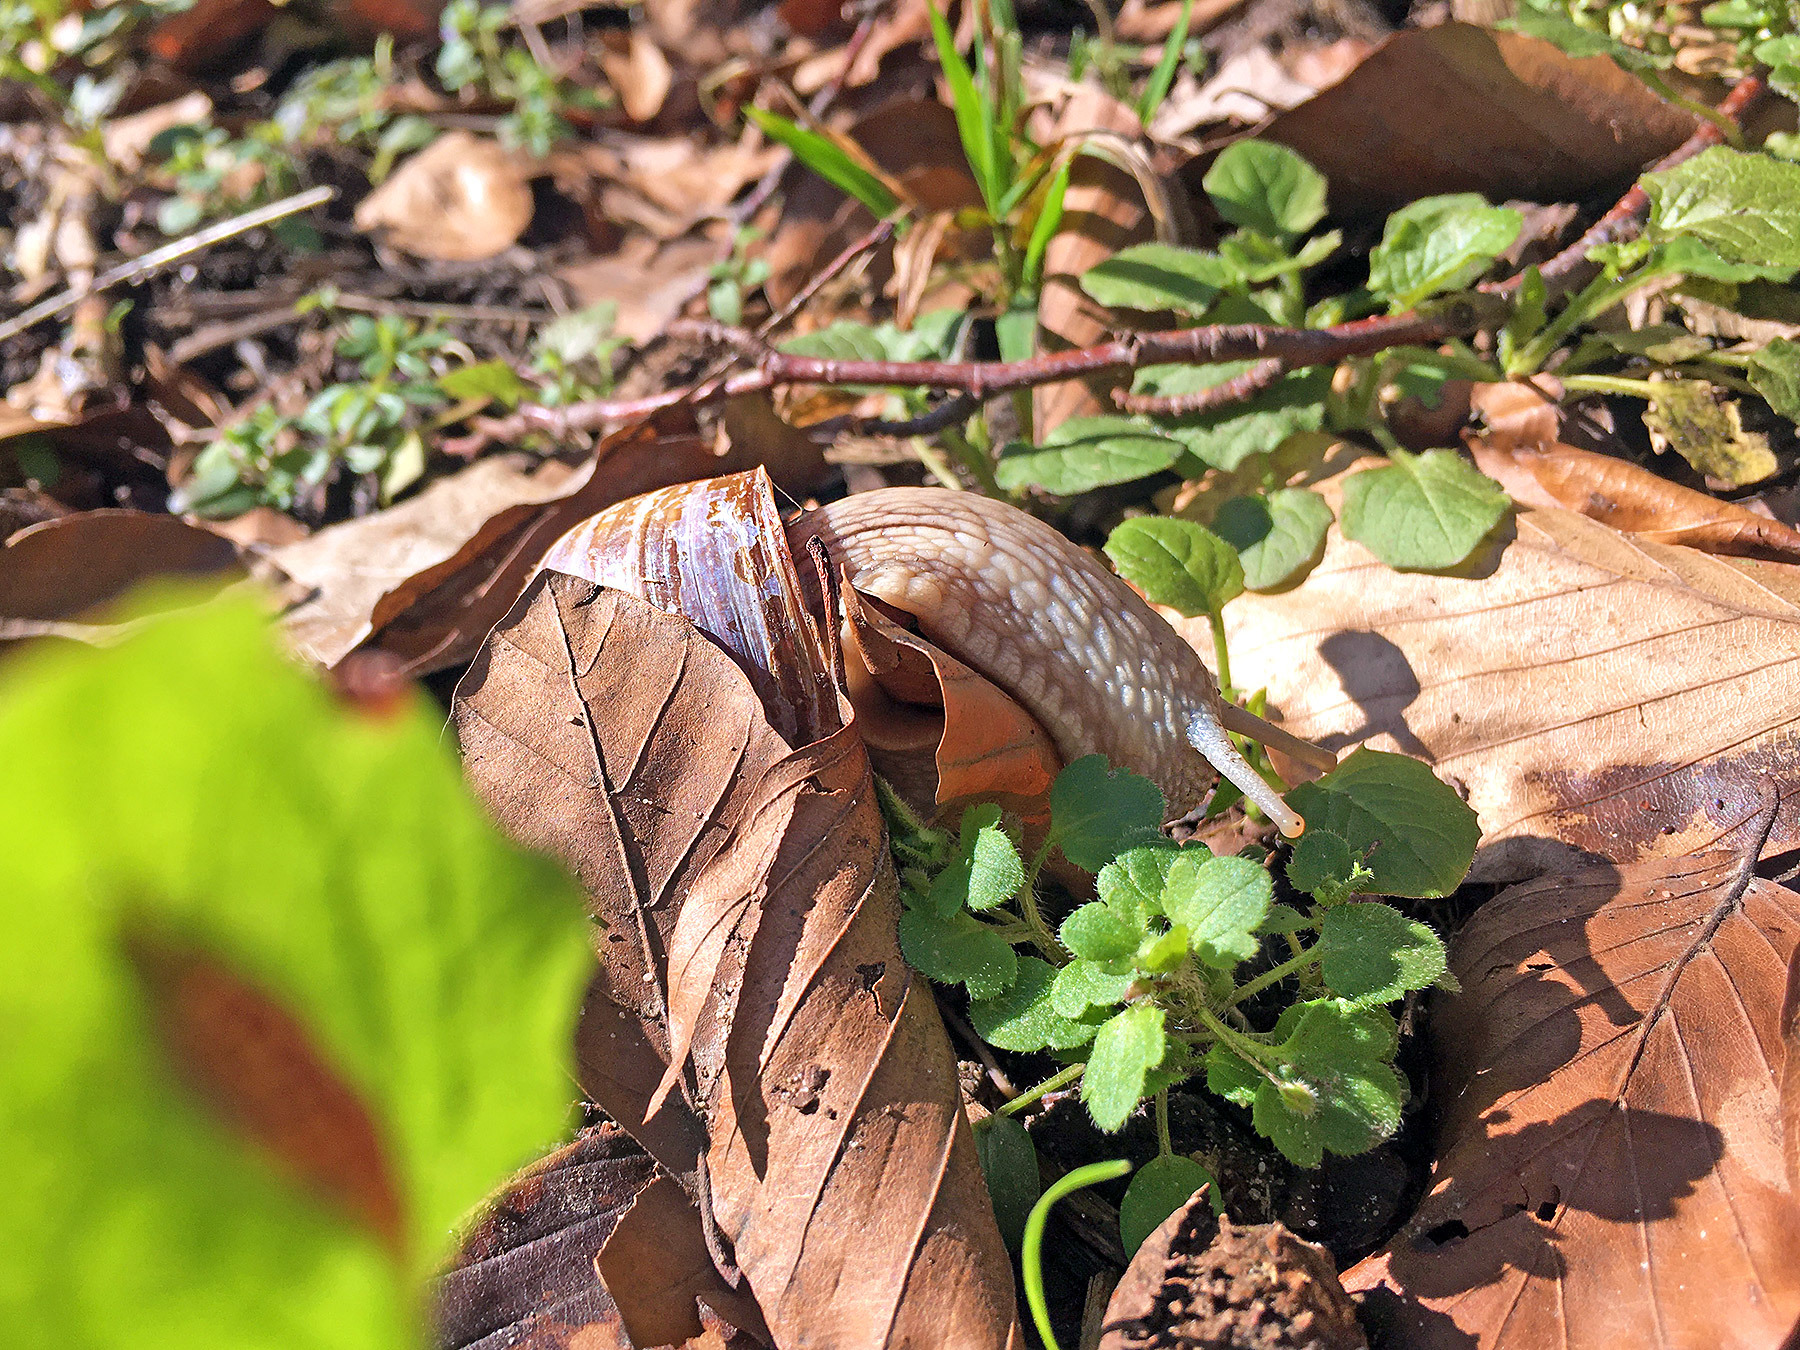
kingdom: Animalia
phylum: Mollusca
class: Gastropoda
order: Stylommatophora
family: Helicidae
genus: Helix
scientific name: Helix pomatia
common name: Roman snail
